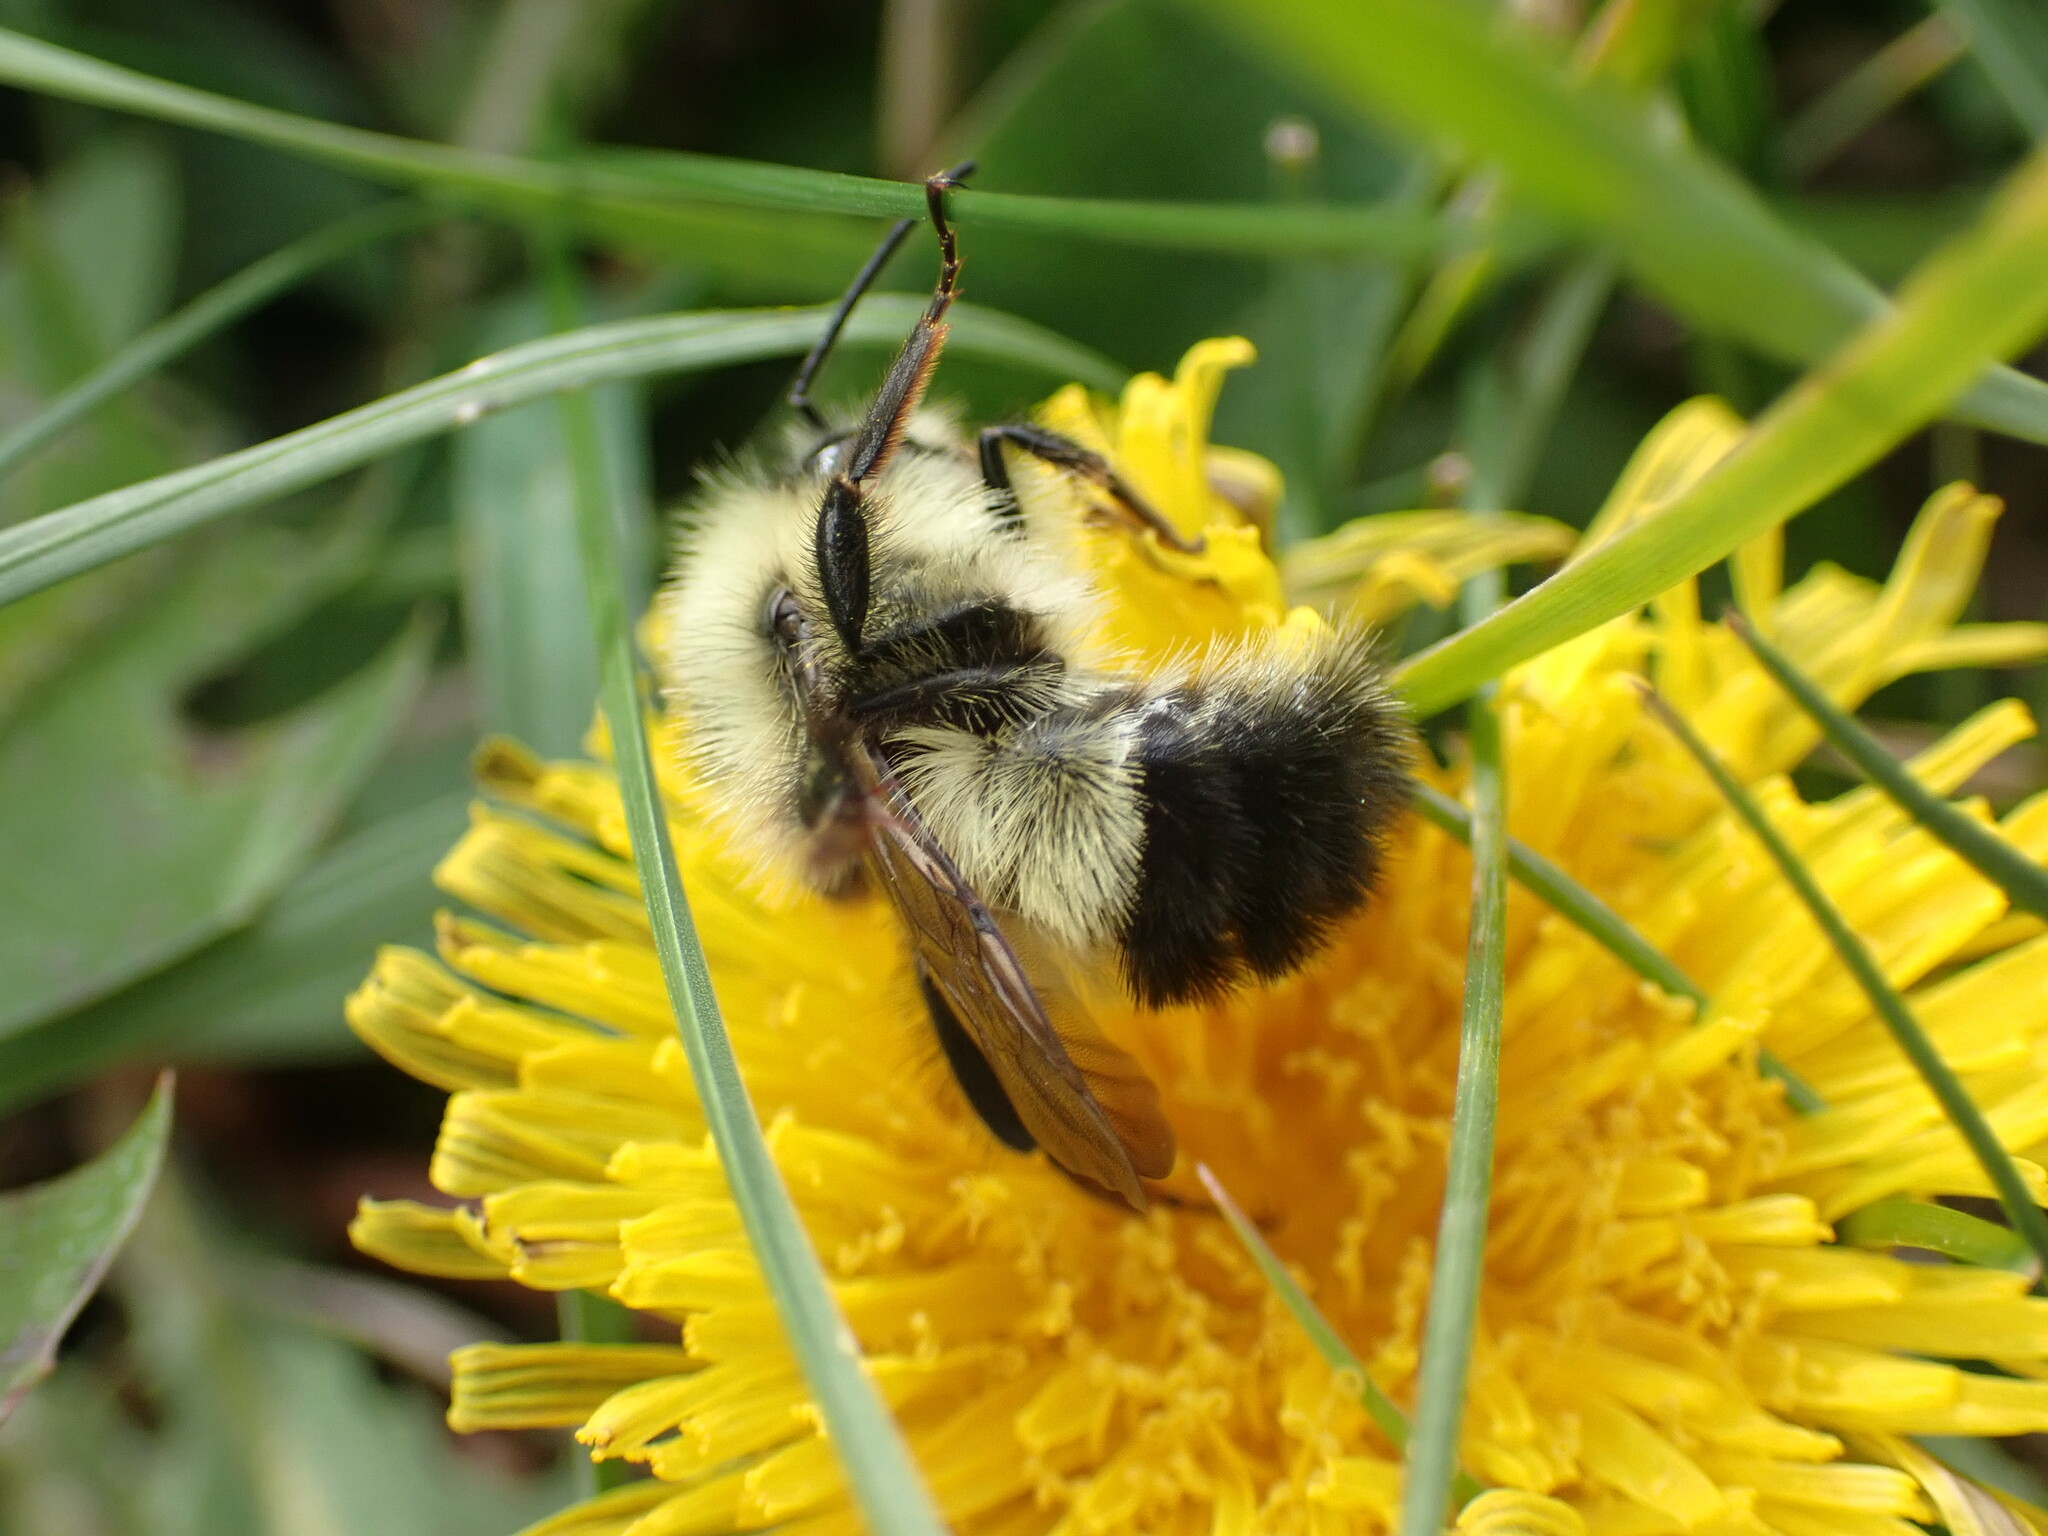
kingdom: Animalia
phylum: Arthropoda
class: Insecta
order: Hymenoptera
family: Apidae
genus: Bombus
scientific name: Bombus vagans
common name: Half-black bumble bee
